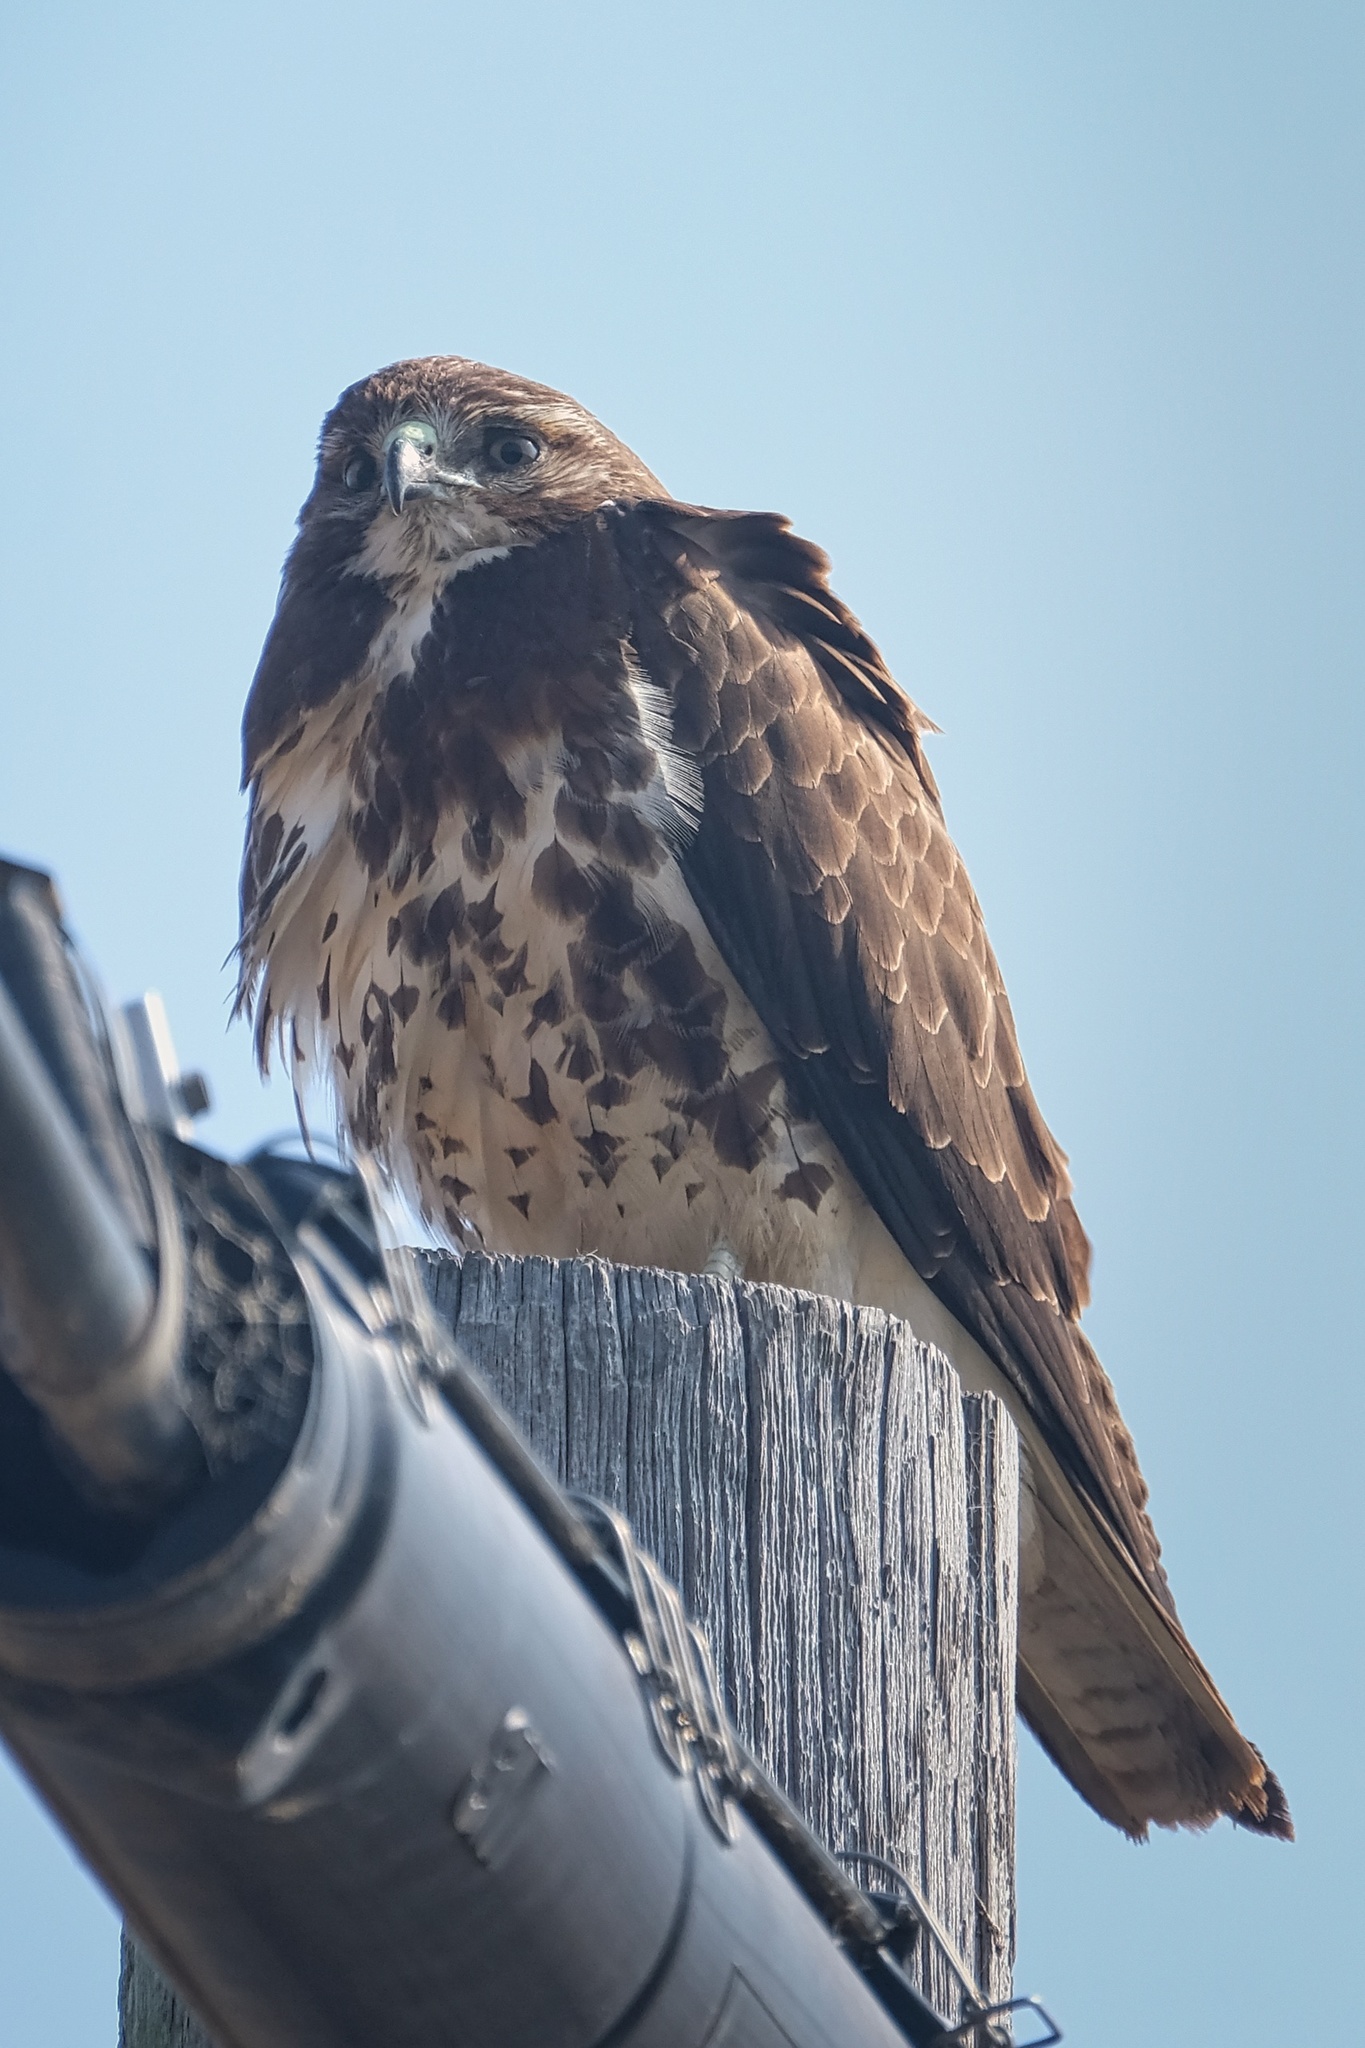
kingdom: Animalia
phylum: Chordata
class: Aves
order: Accipitriformes
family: Accipitridae
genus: Buteo
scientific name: Buteo swainsoni
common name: Swainson's hawk
